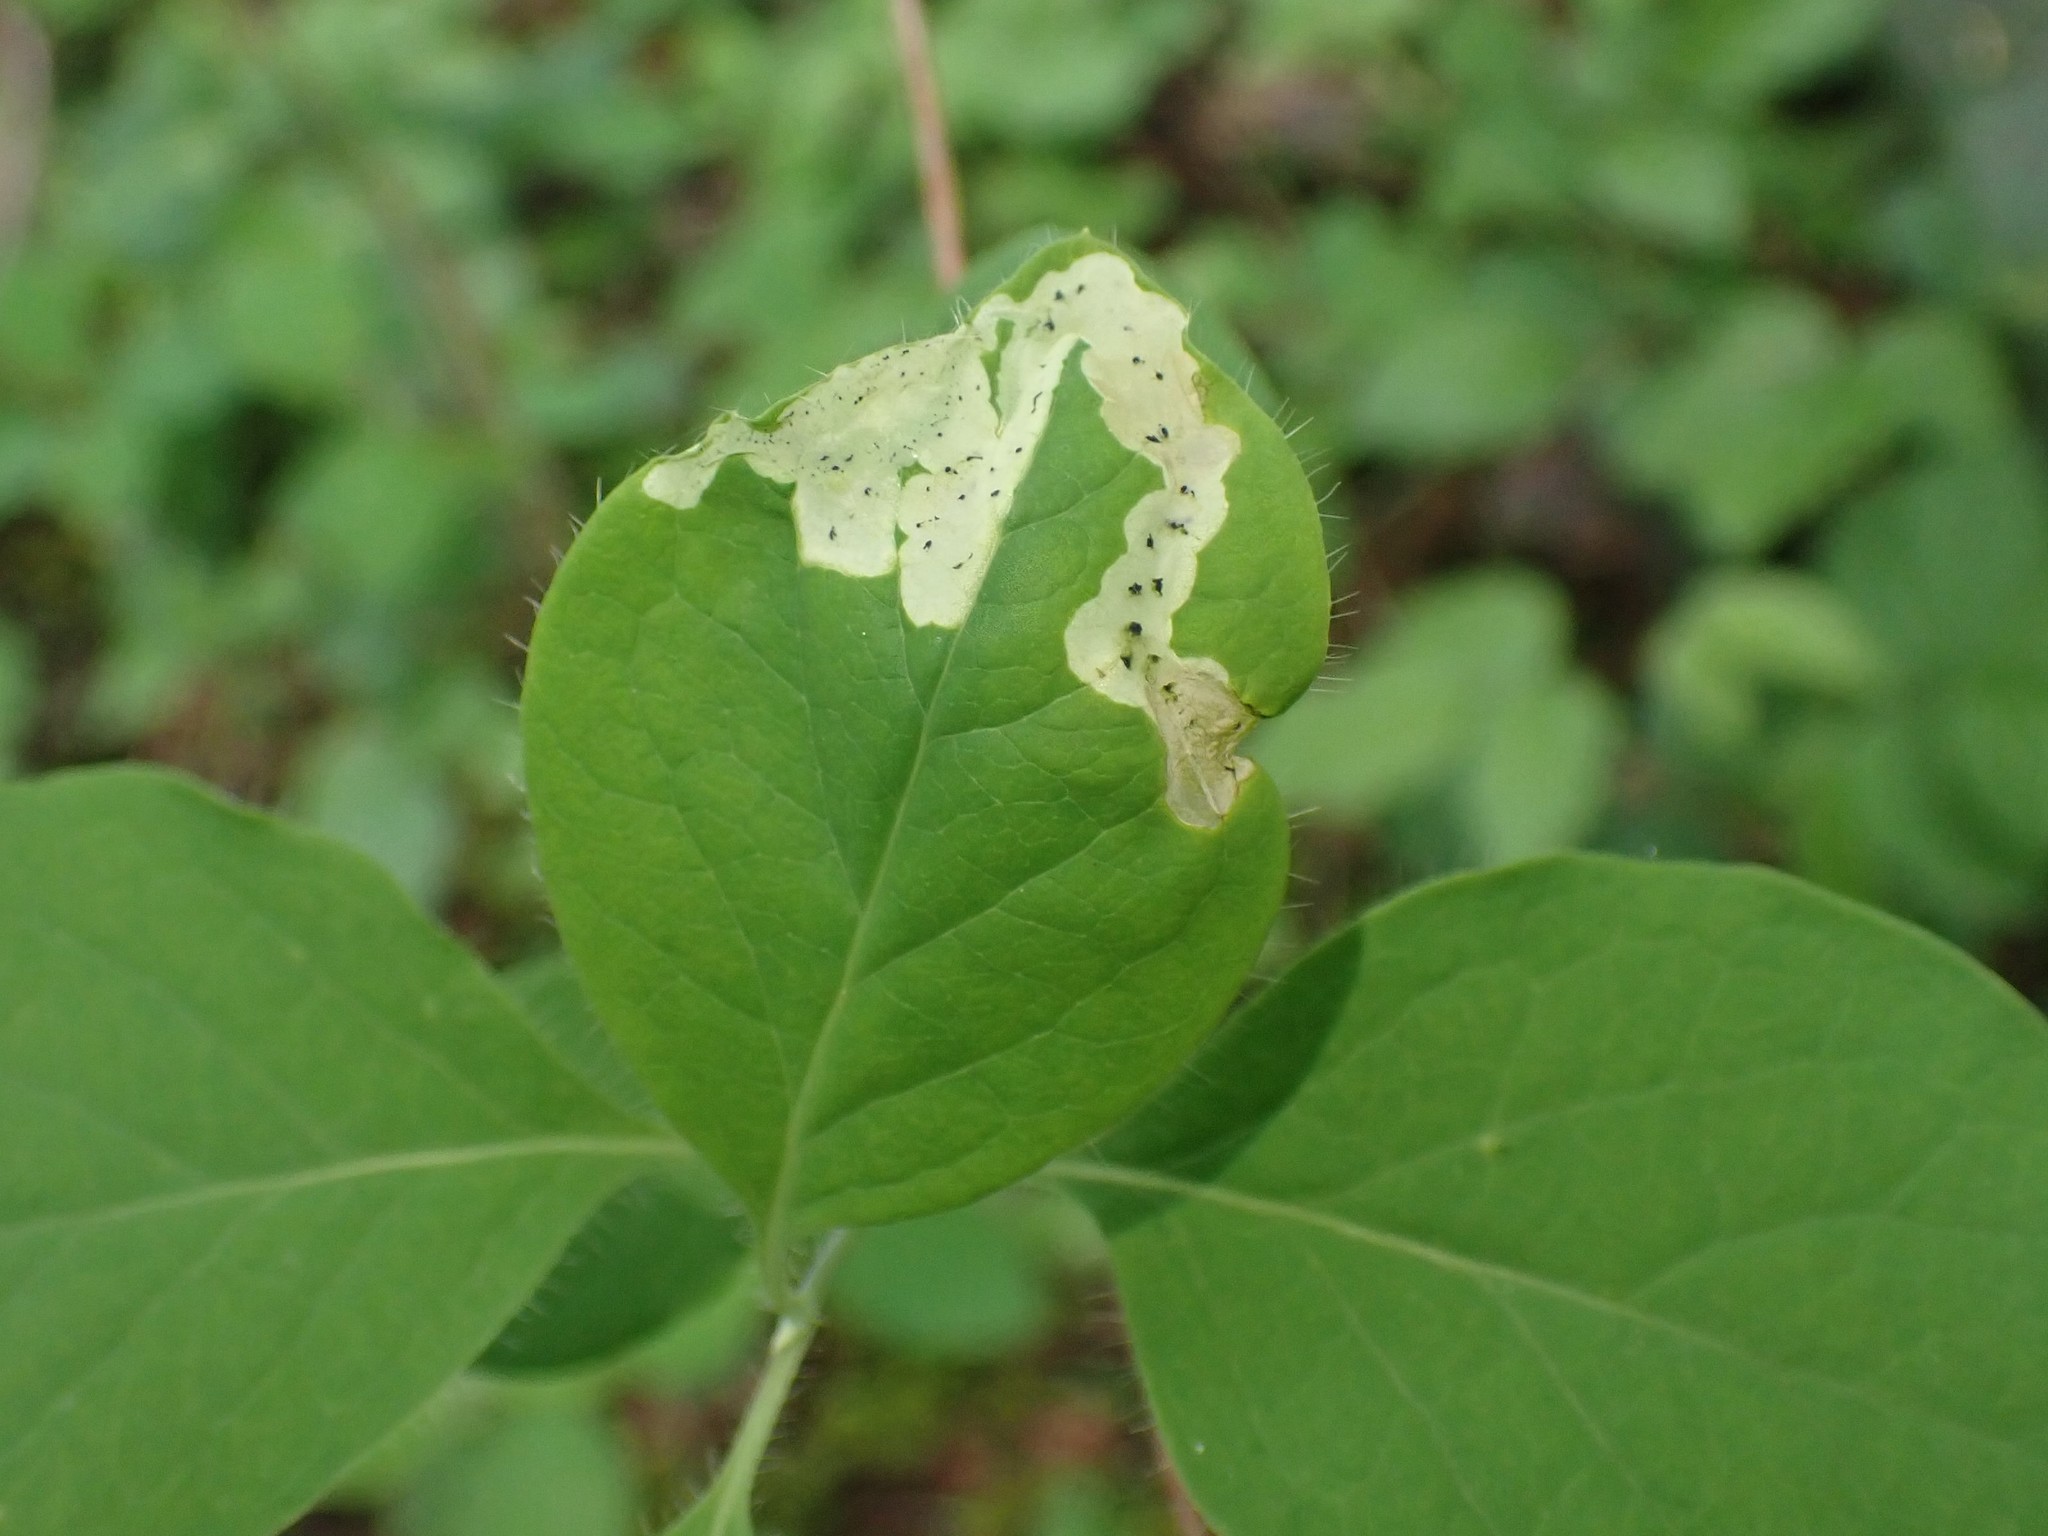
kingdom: Animalia
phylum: Arthropoda
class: Insecta
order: Diptera
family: Agromyzidae
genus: Aulagromyza
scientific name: Aulagromyza cornigera
